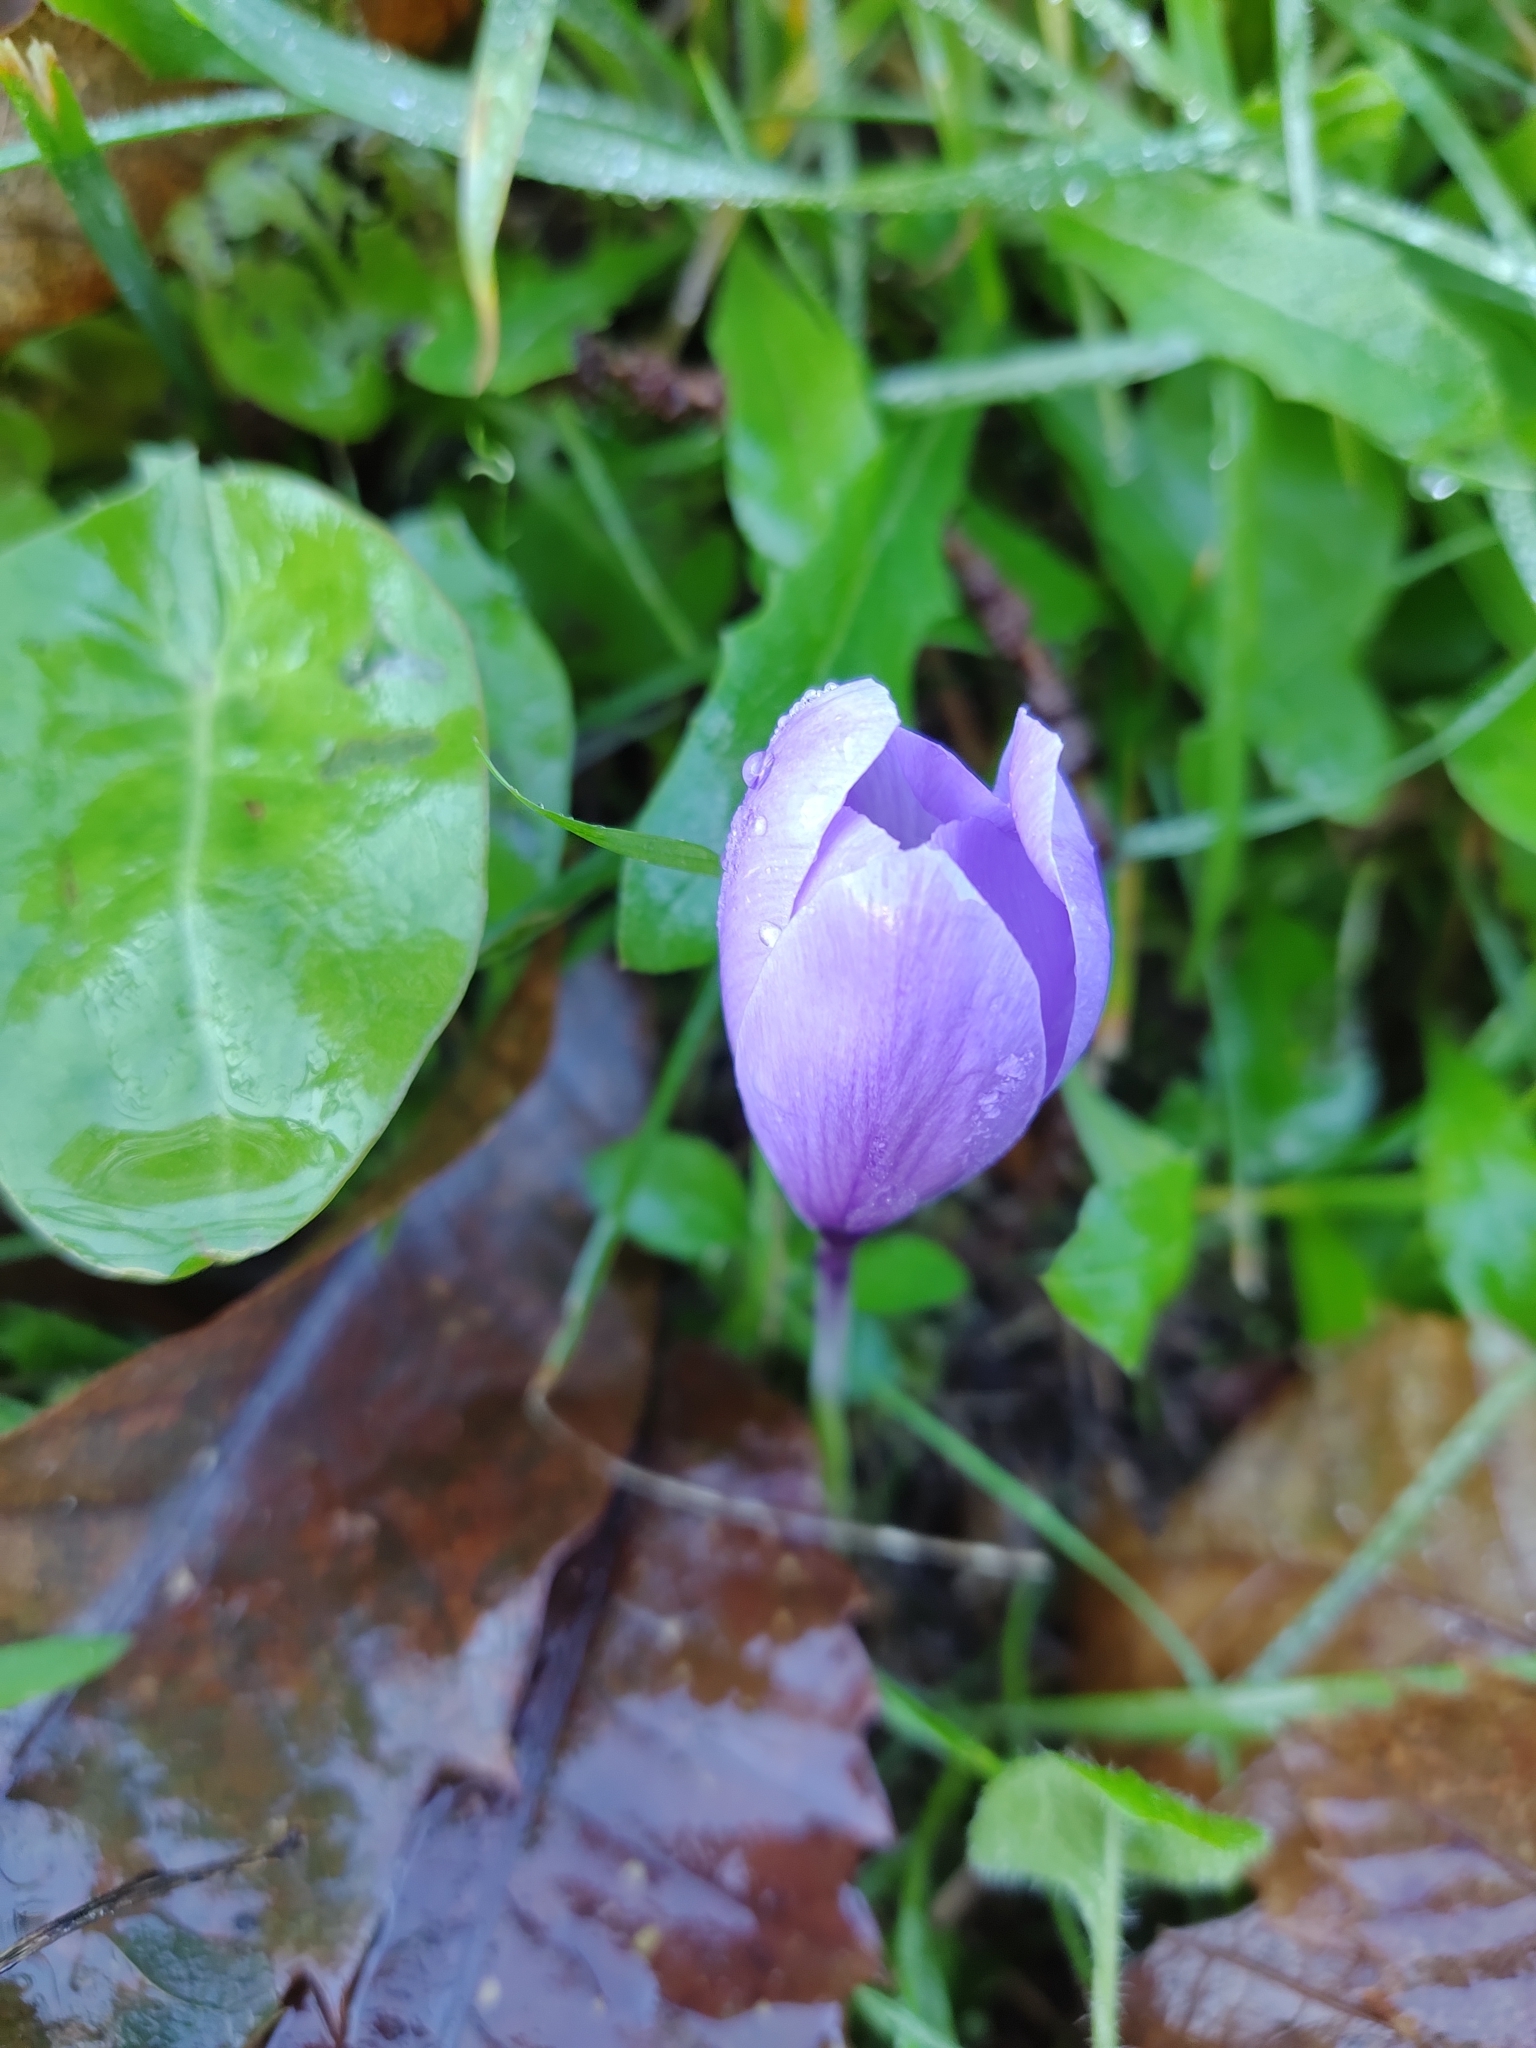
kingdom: Plantae
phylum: Tracheophyta
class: Liliopsida
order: Asparagales
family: Iridaceae
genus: Crocus
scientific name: Crocus serotinus
